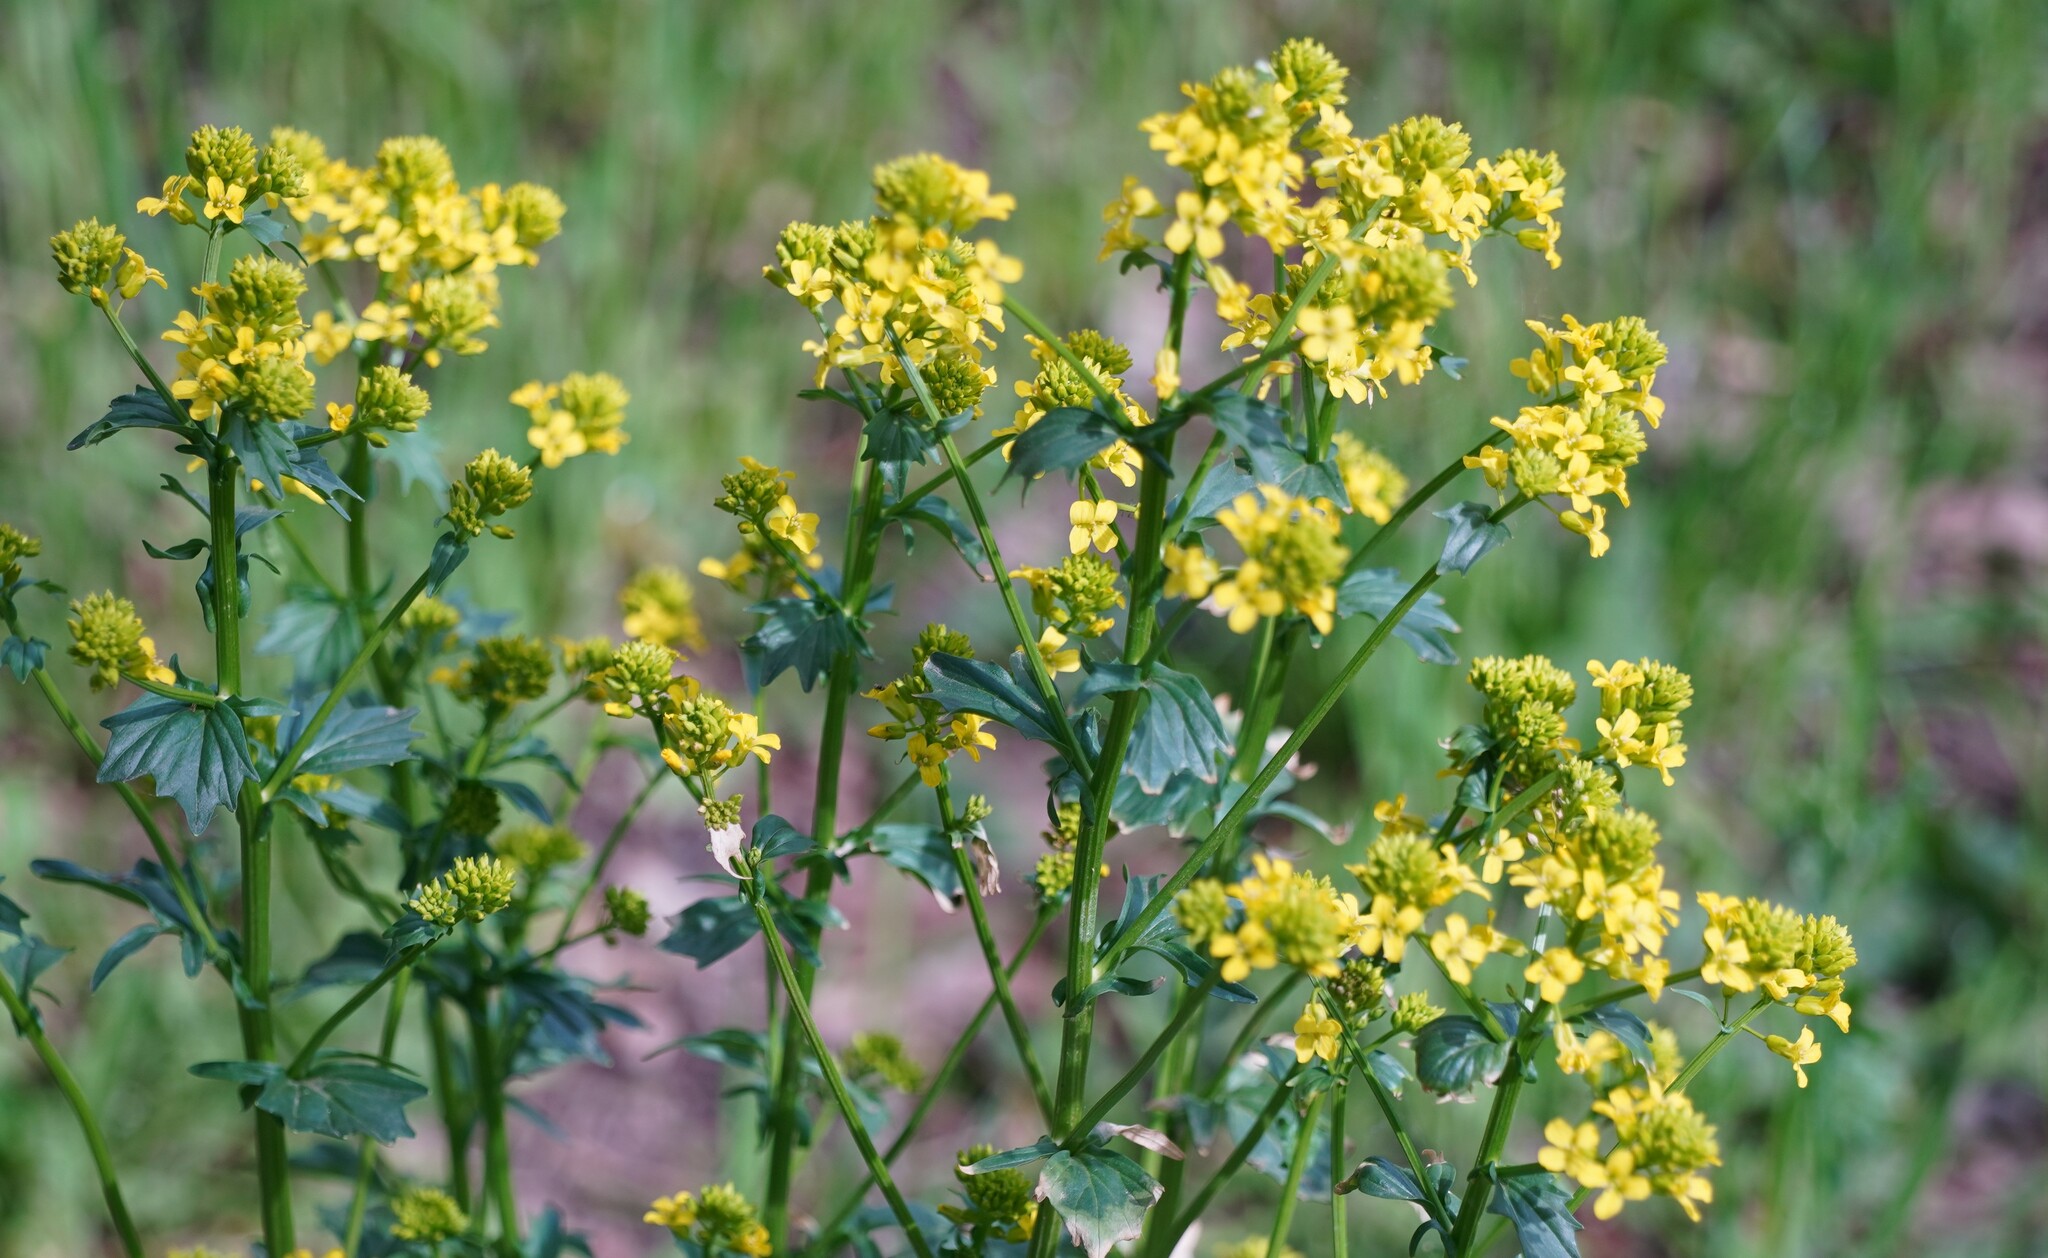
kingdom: Plantae
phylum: Tracheophyta
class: Magnoliopsida
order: Brassicales
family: Brassicaceae
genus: Barbarea
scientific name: Barbarea vulgaris
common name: Cressy-greens
